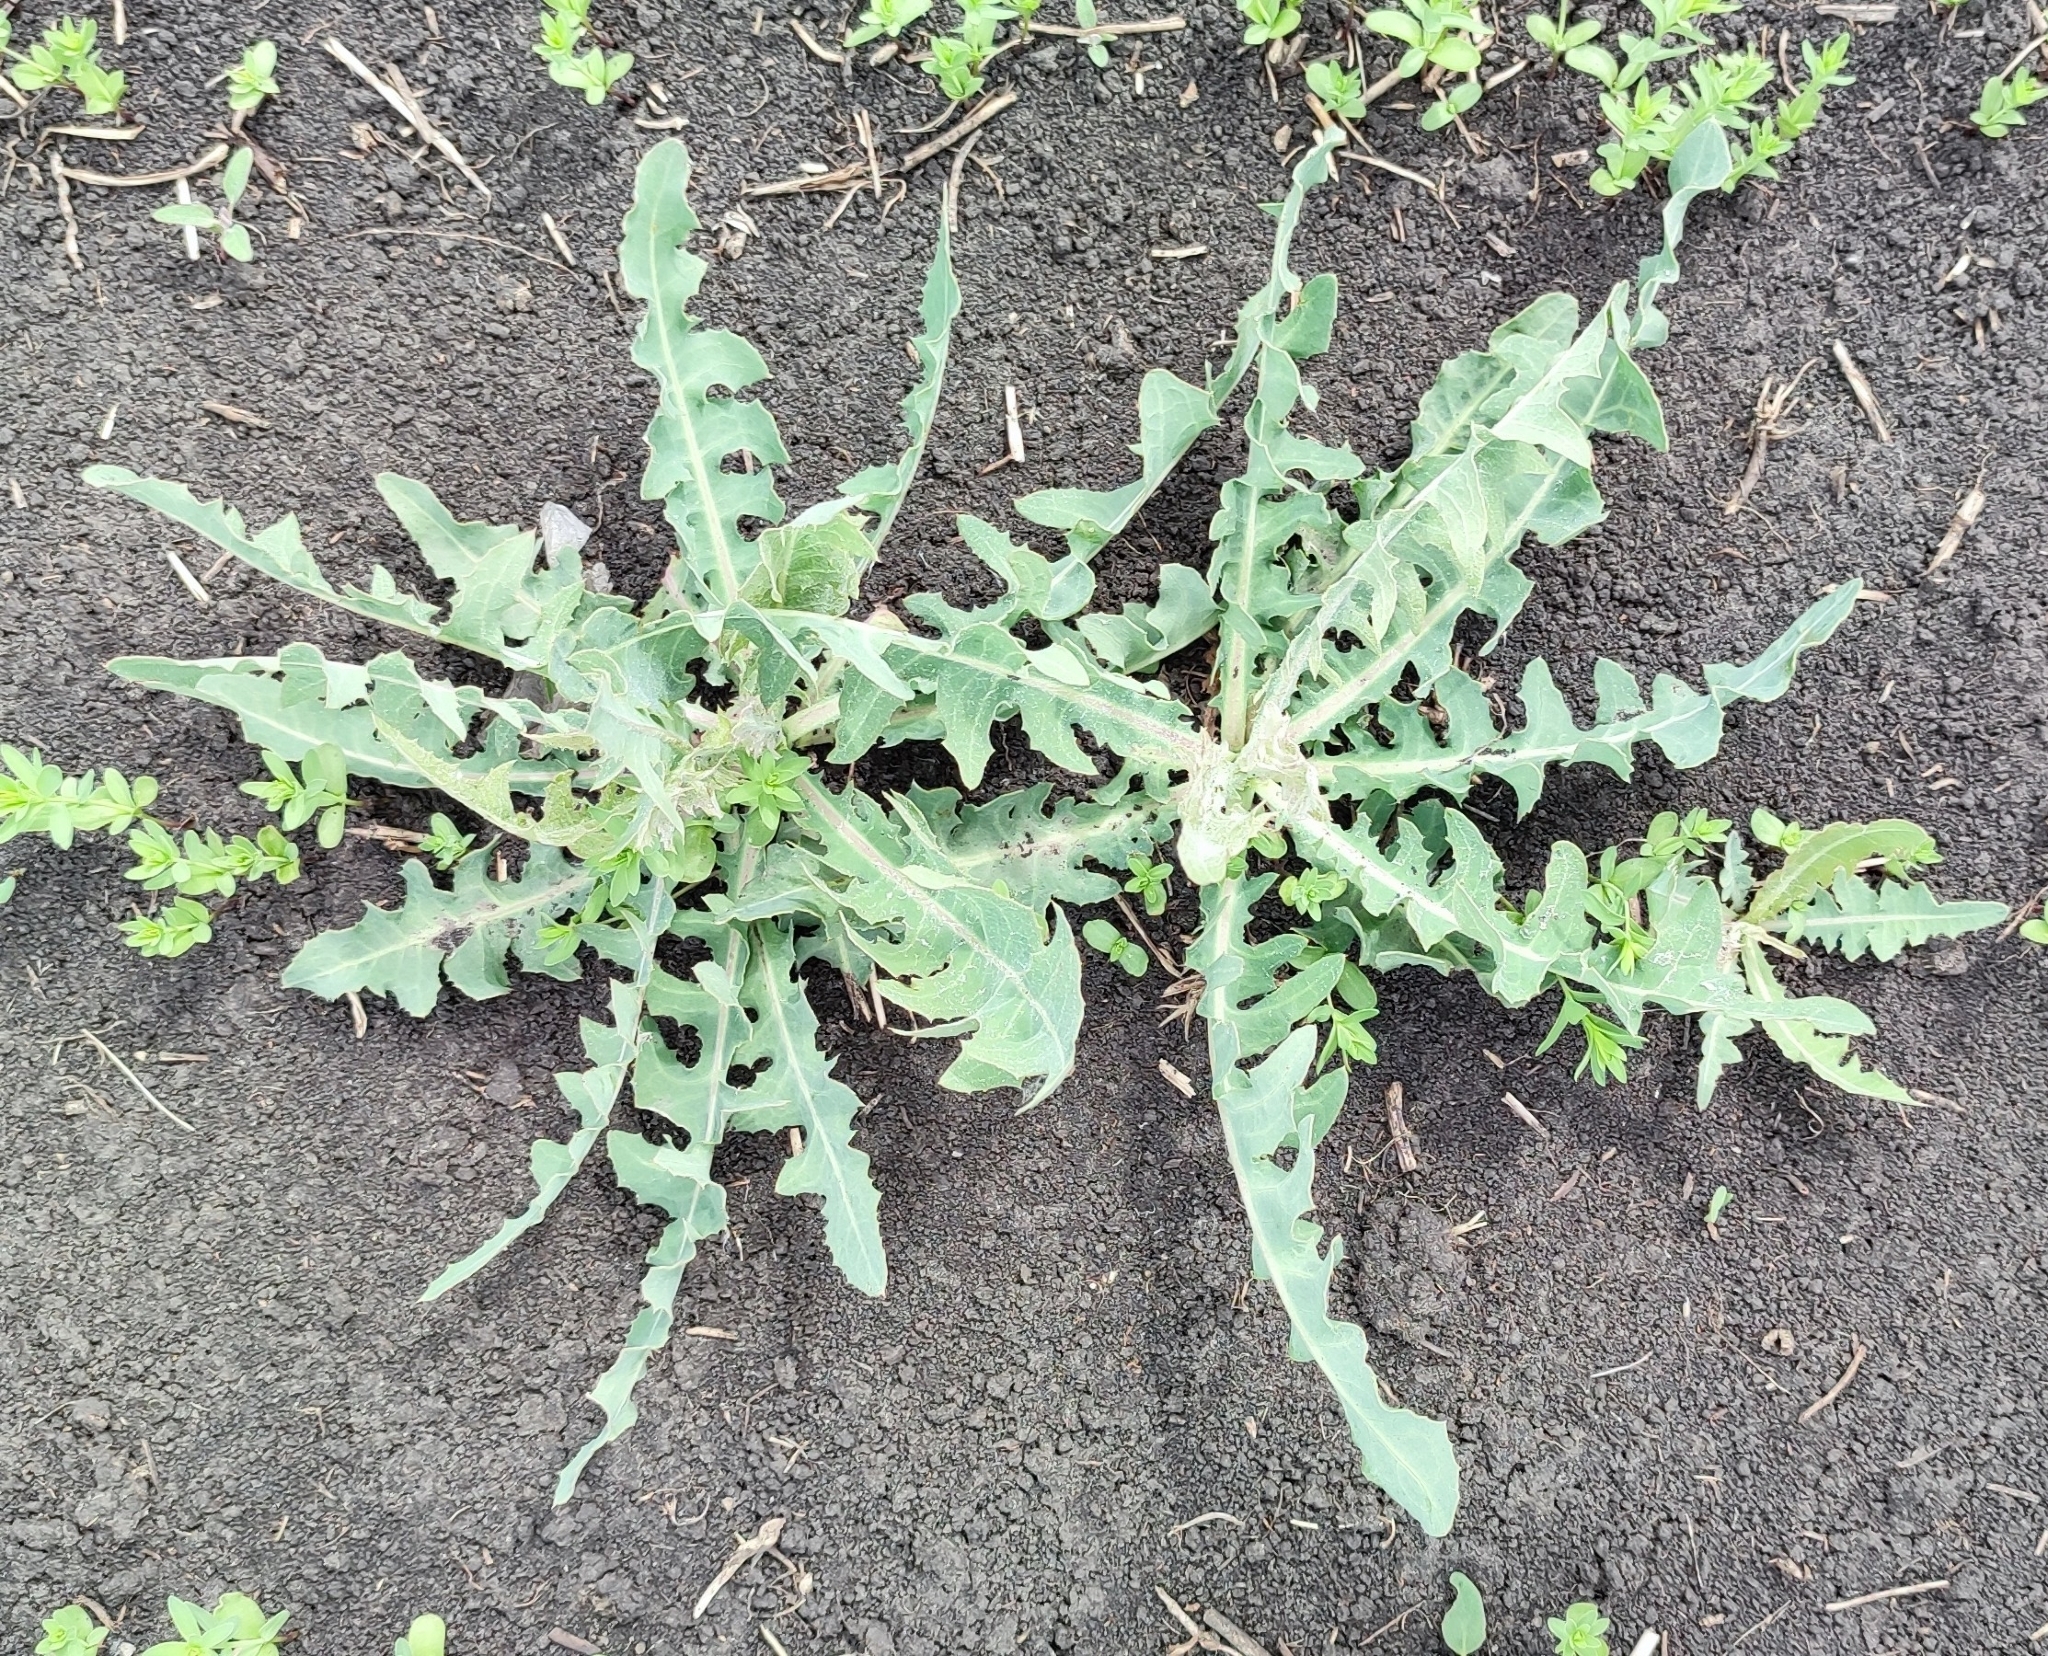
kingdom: Plantae
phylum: Tracheophyta
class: Magnoliopsida
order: Asterales
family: Asteraceae
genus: Lactuca
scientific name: Lactuca tatarica
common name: Blue lettuce
